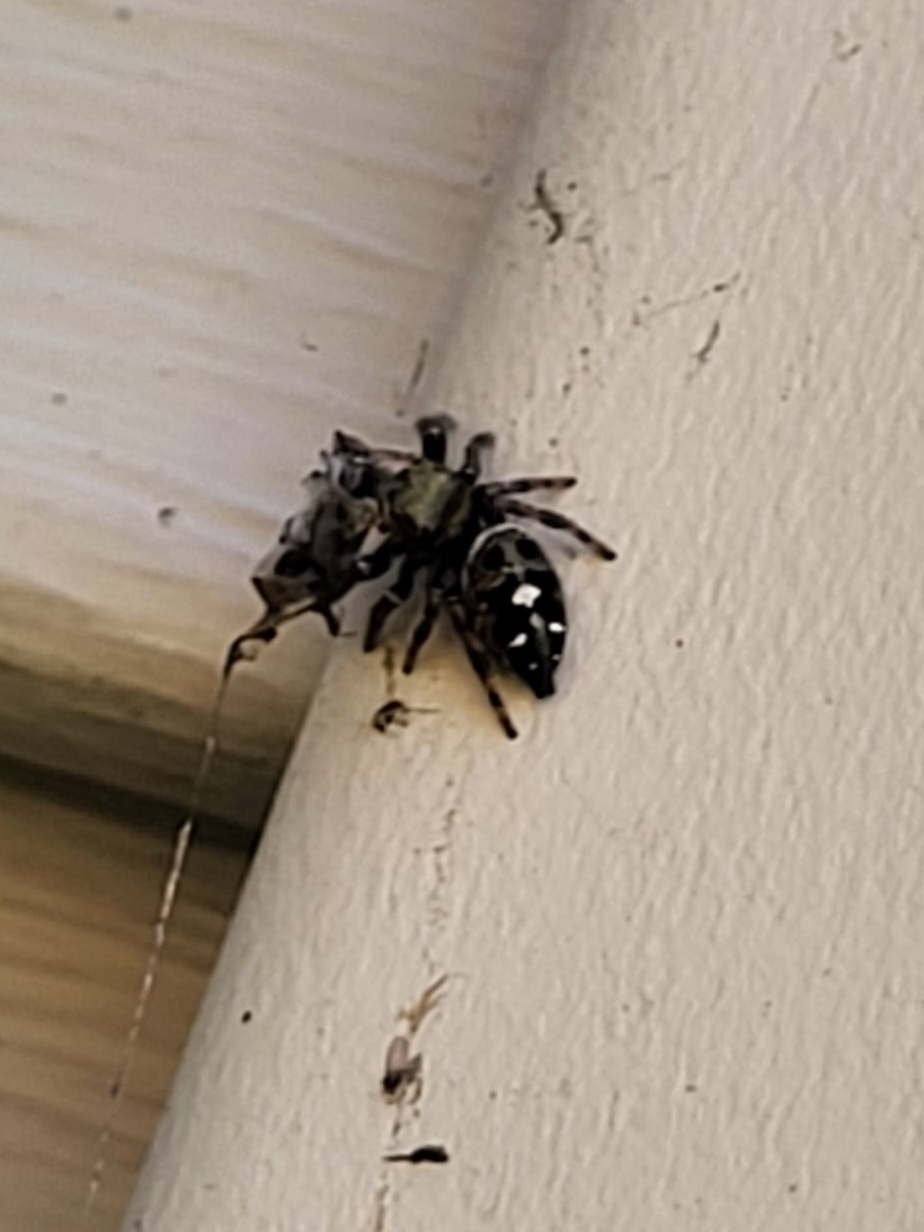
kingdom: Animalia
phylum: Arthropoda
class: Arachnida
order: Araneae
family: Salticidae
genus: Phidippus
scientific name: Phidippus audax
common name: Bold jumper
